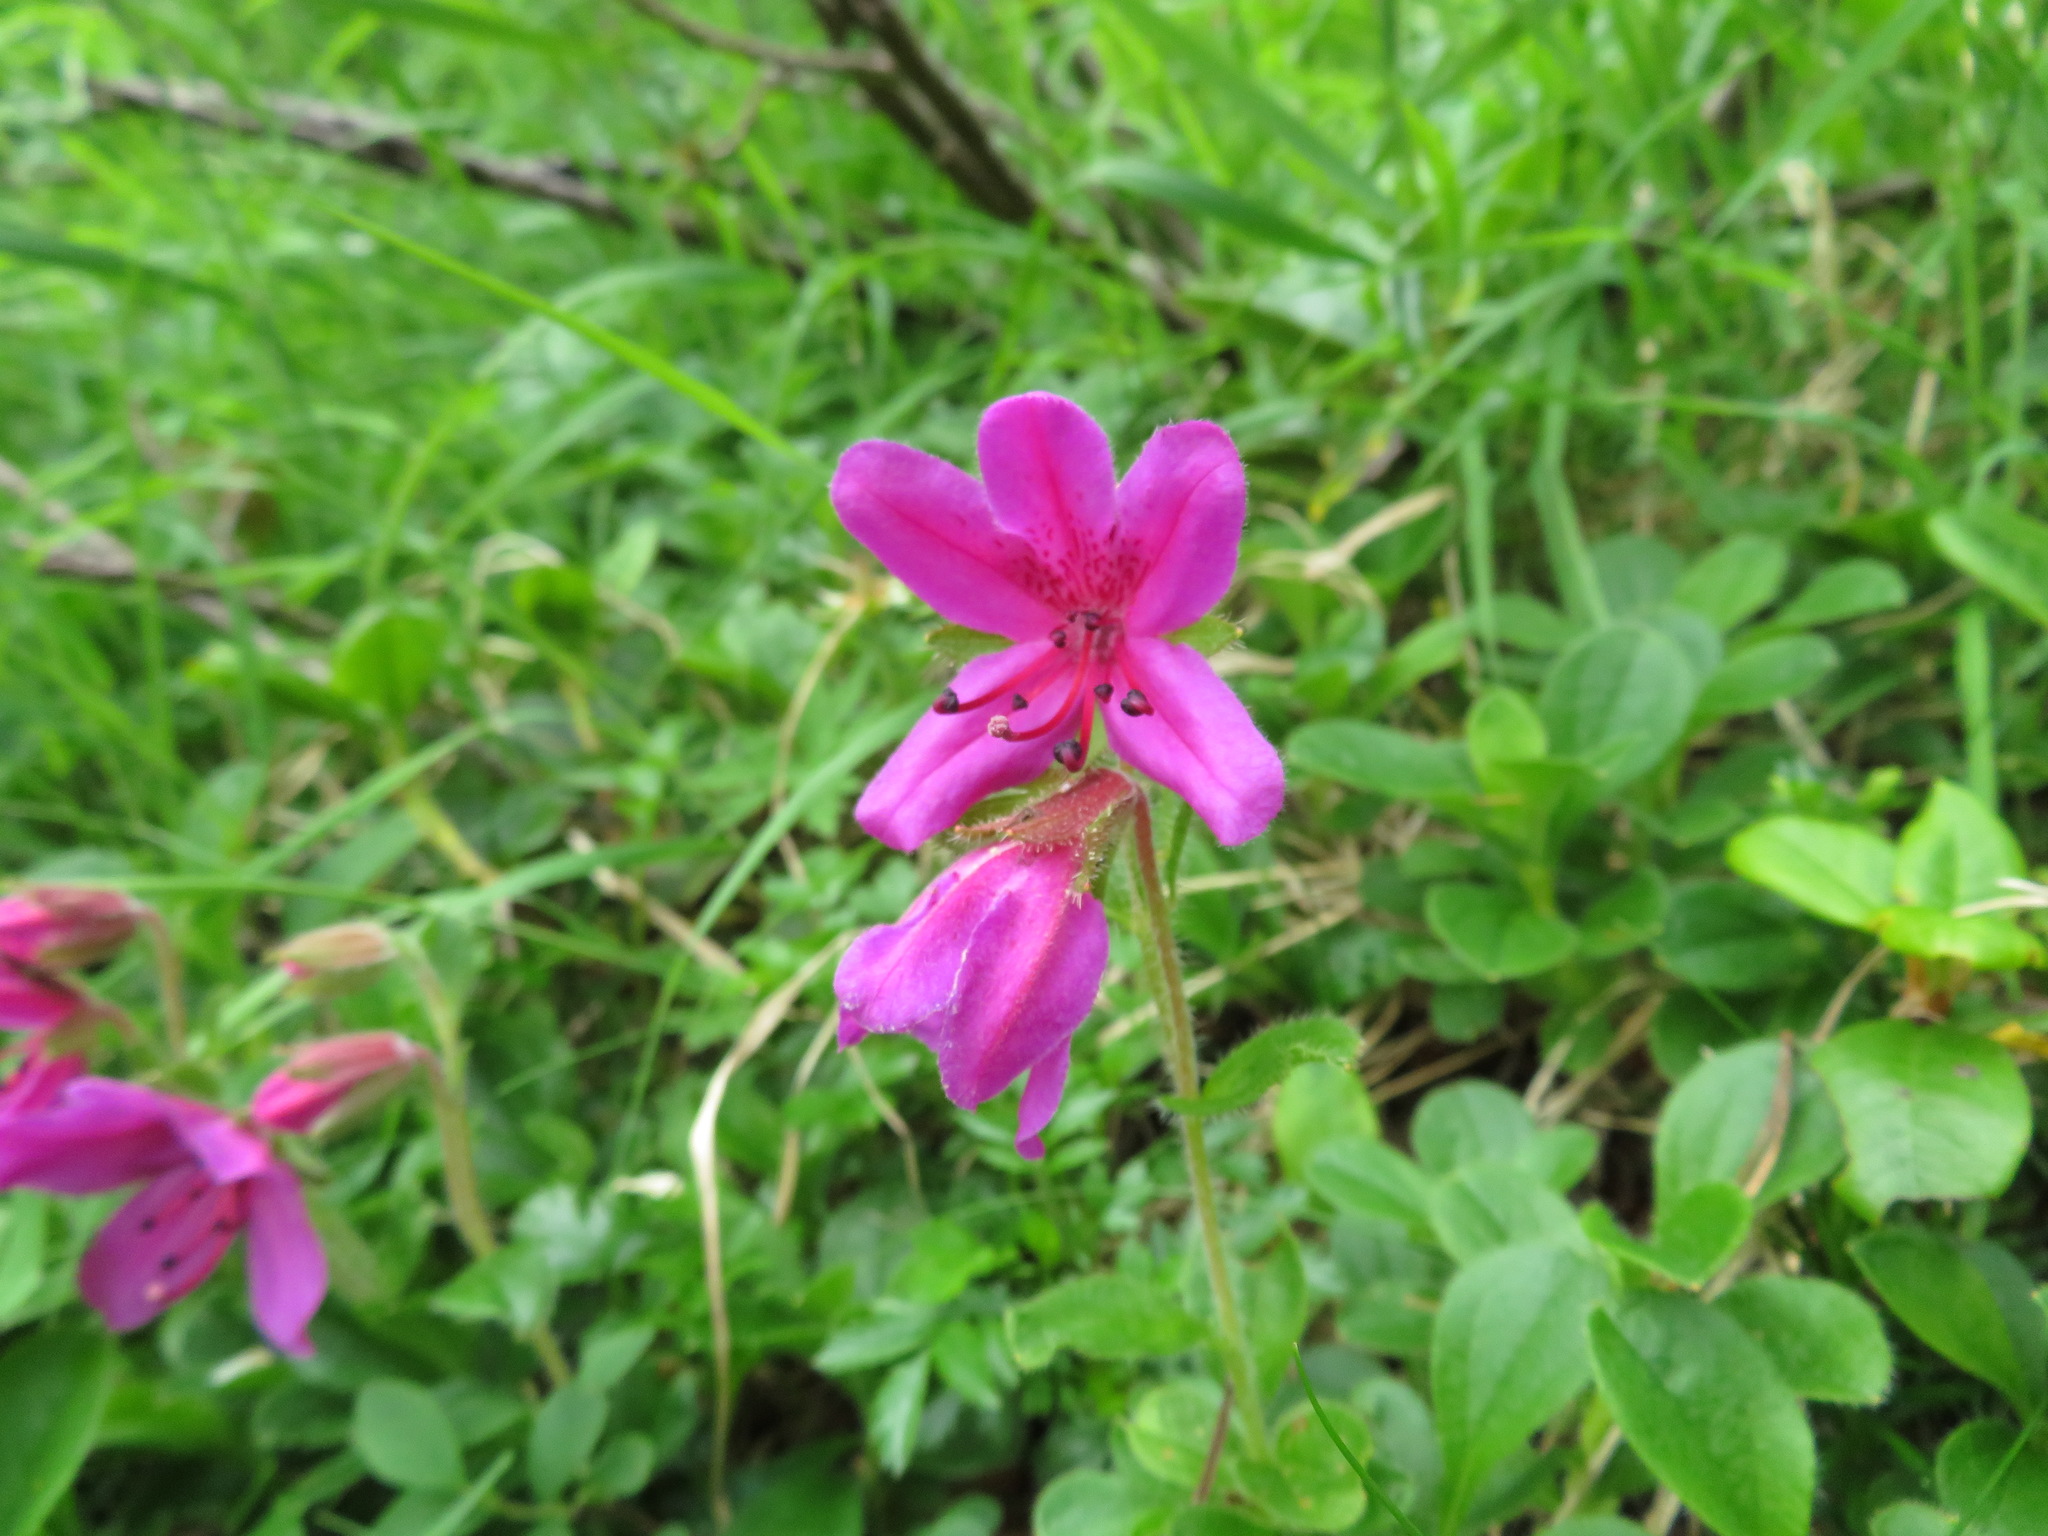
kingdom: Plantae
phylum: Tracheophyta
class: Magnoliopsida
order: Ericales
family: Ericaceae
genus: Rhododendron
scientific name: Rhododendron camtschaticum
